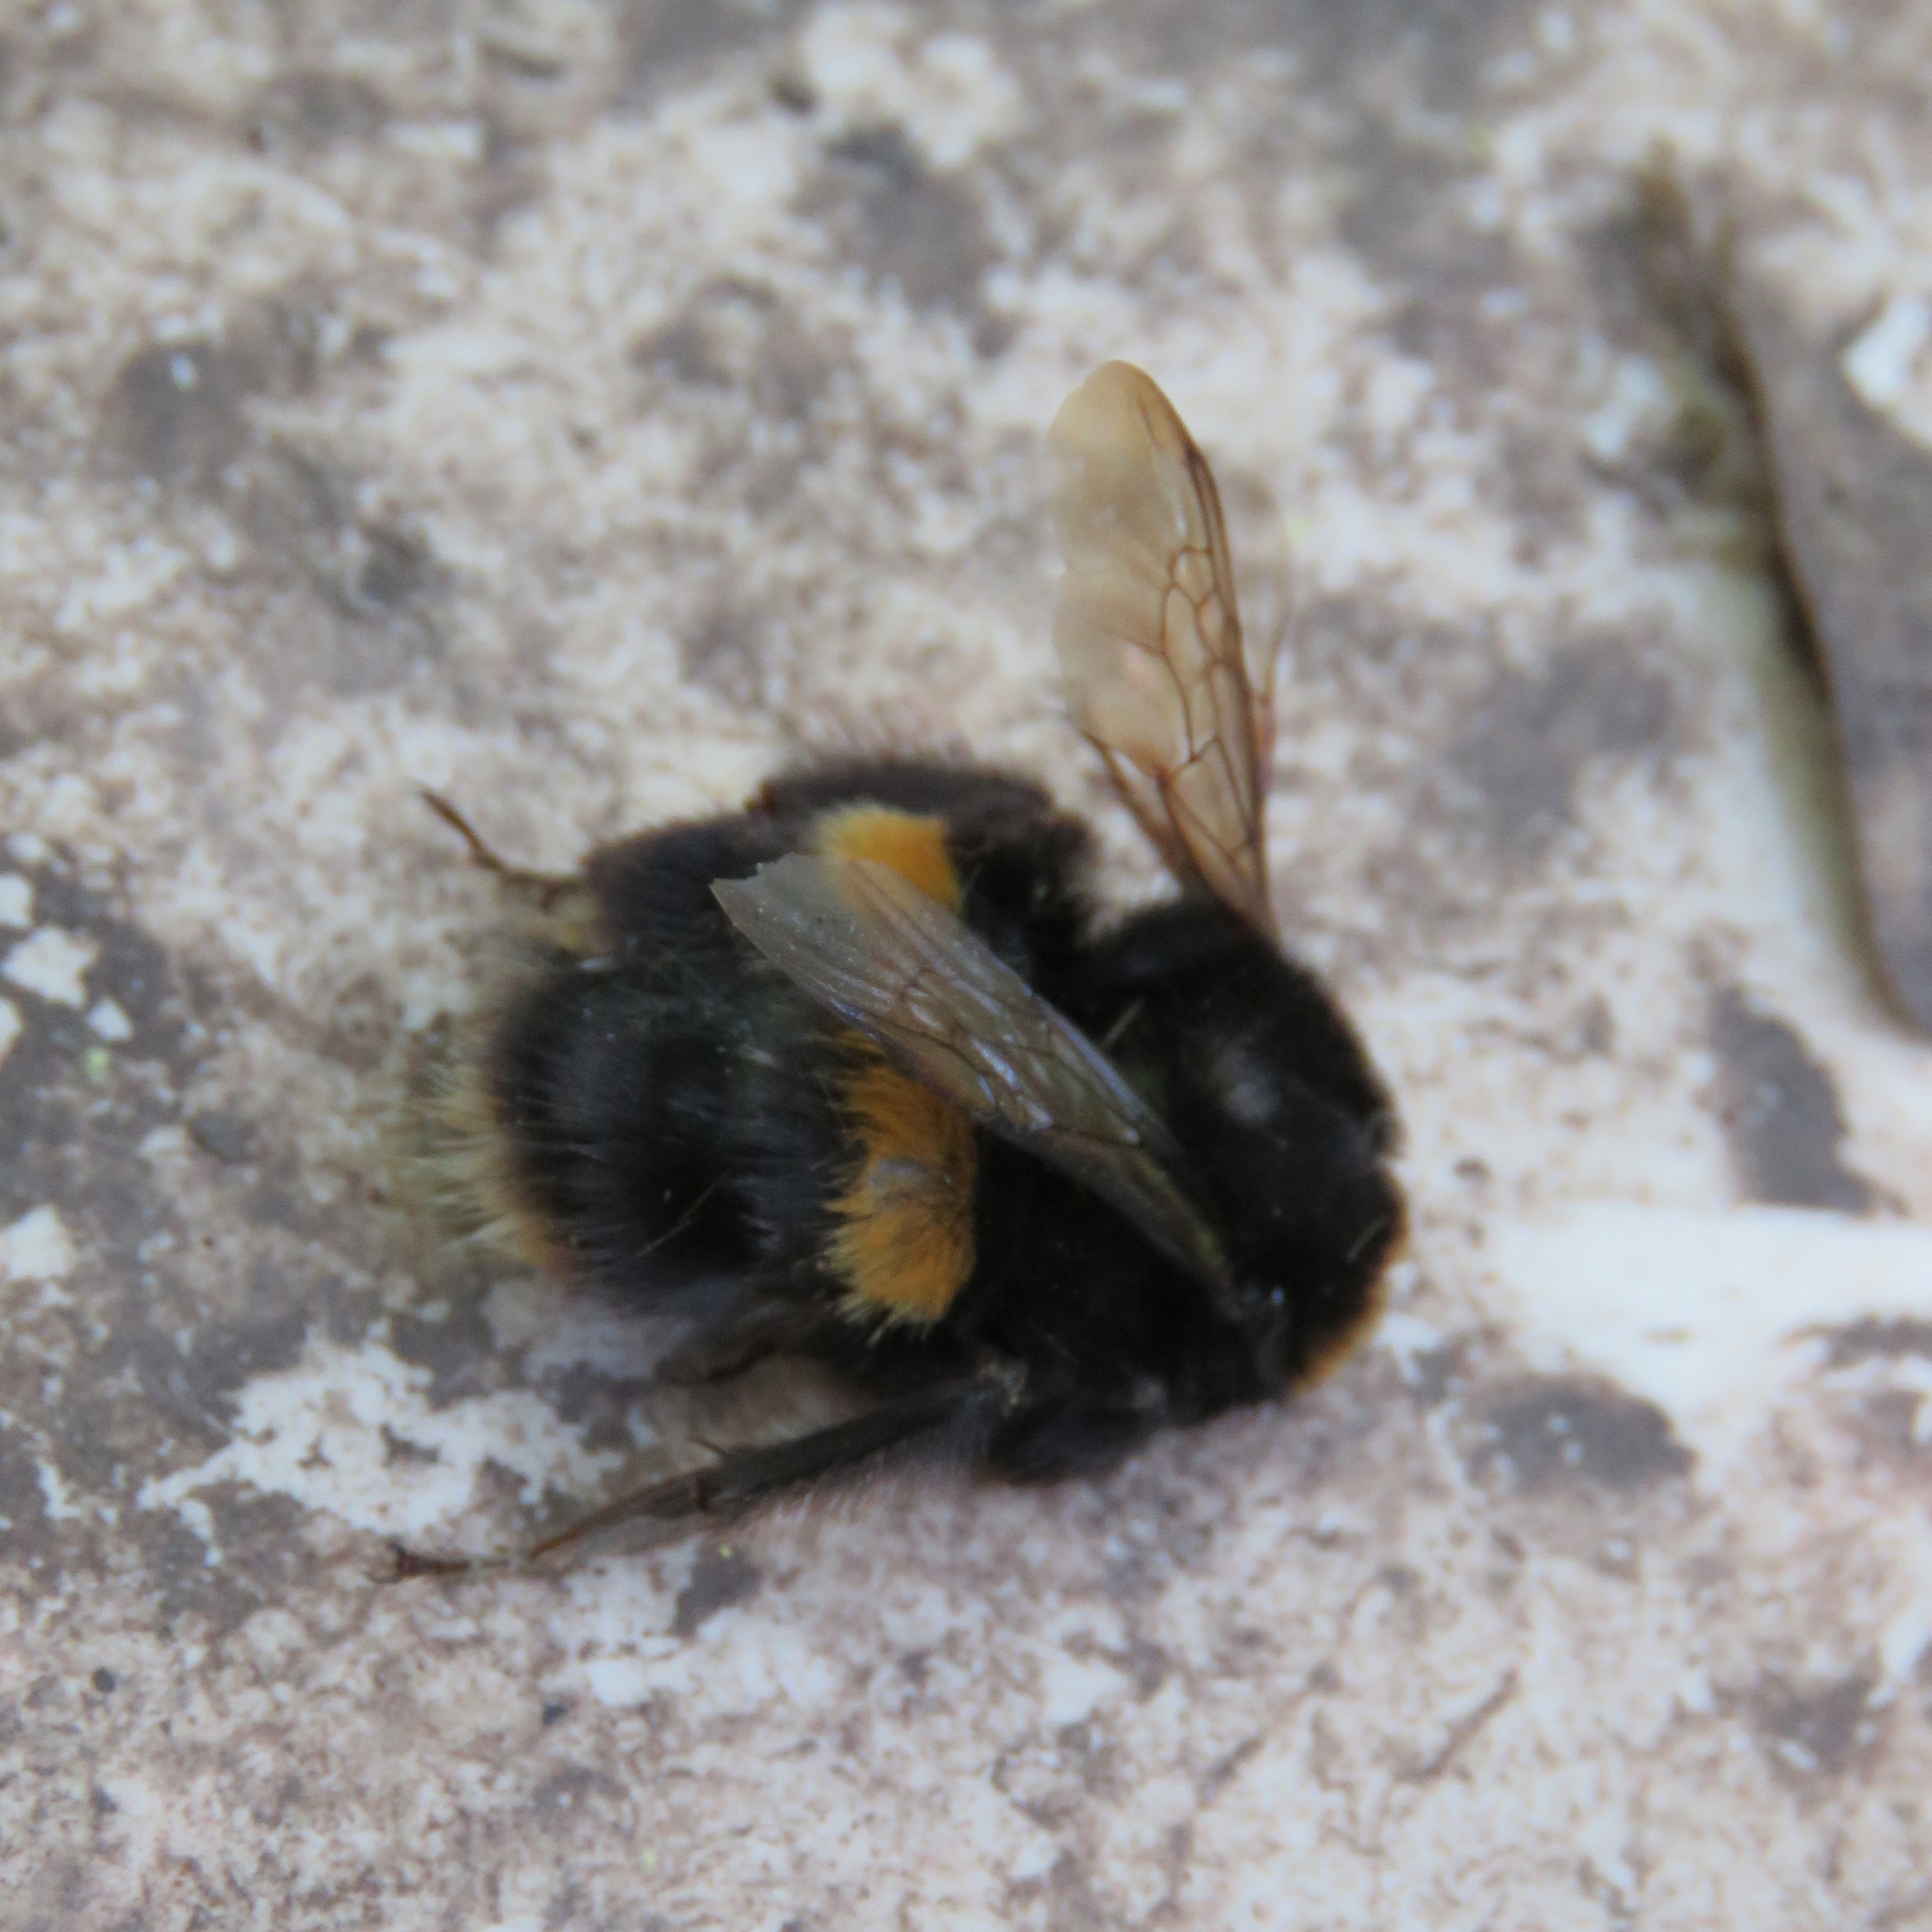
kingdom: Animalia
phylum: Arthropoda
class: Insecta
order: Hymenoptera
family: Apidae
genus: Bombus
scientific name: Bombus terrestris
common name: Buff-tailed bumblebee
